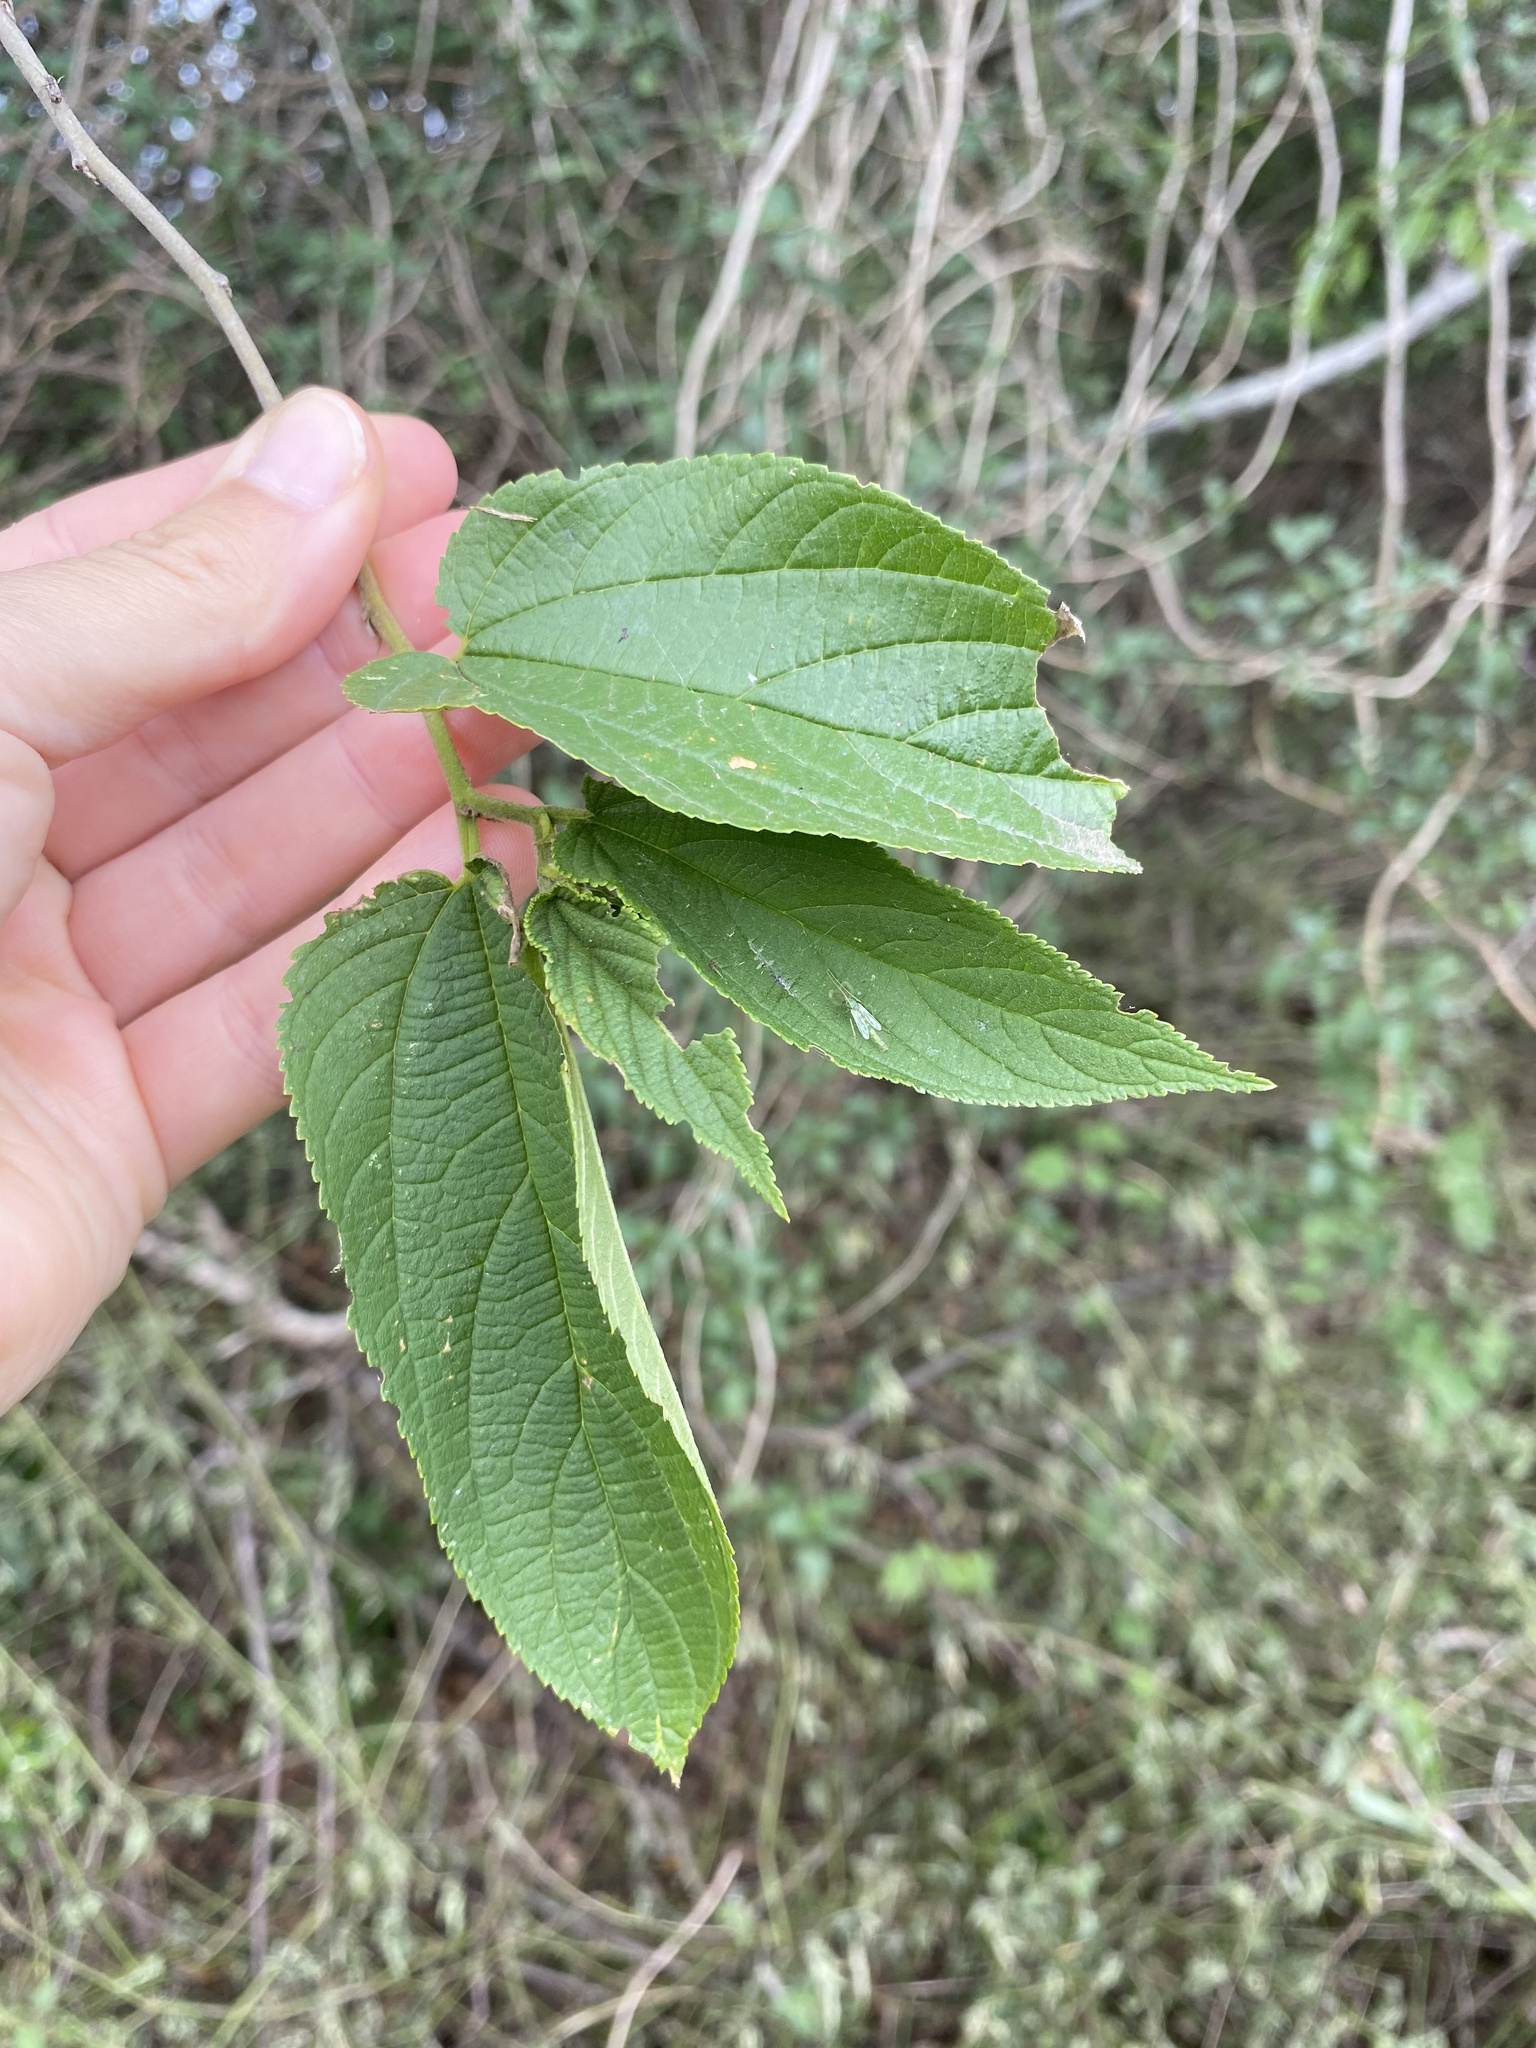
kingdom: Plantae
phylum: Tracheophyta
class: Magnoliopsida
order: Rosales
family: Cannabaceae
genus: Trema
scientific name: Trema orientale
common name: Indian charcoal tree
